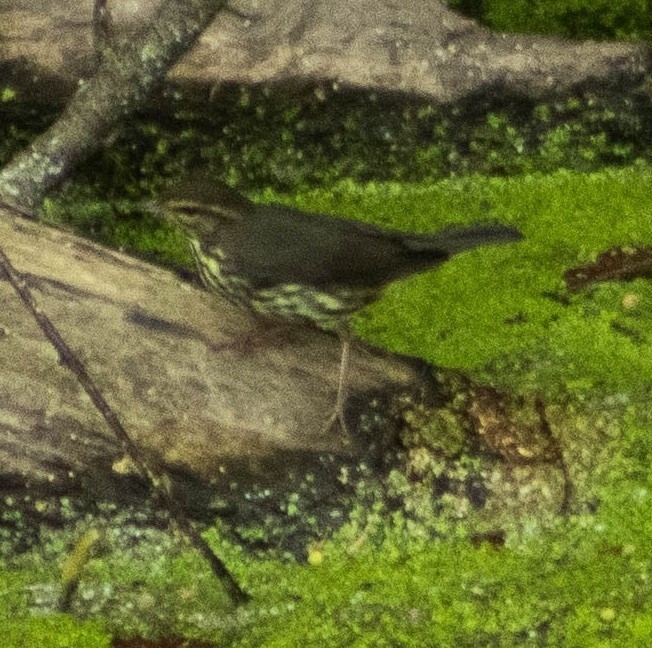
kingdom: Animalia
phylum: Chordata
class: Aves
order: Passeriformes
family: Parulidae
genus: Parkesia
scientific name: Parkesia noveboracensis
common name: Northern waterthrush
